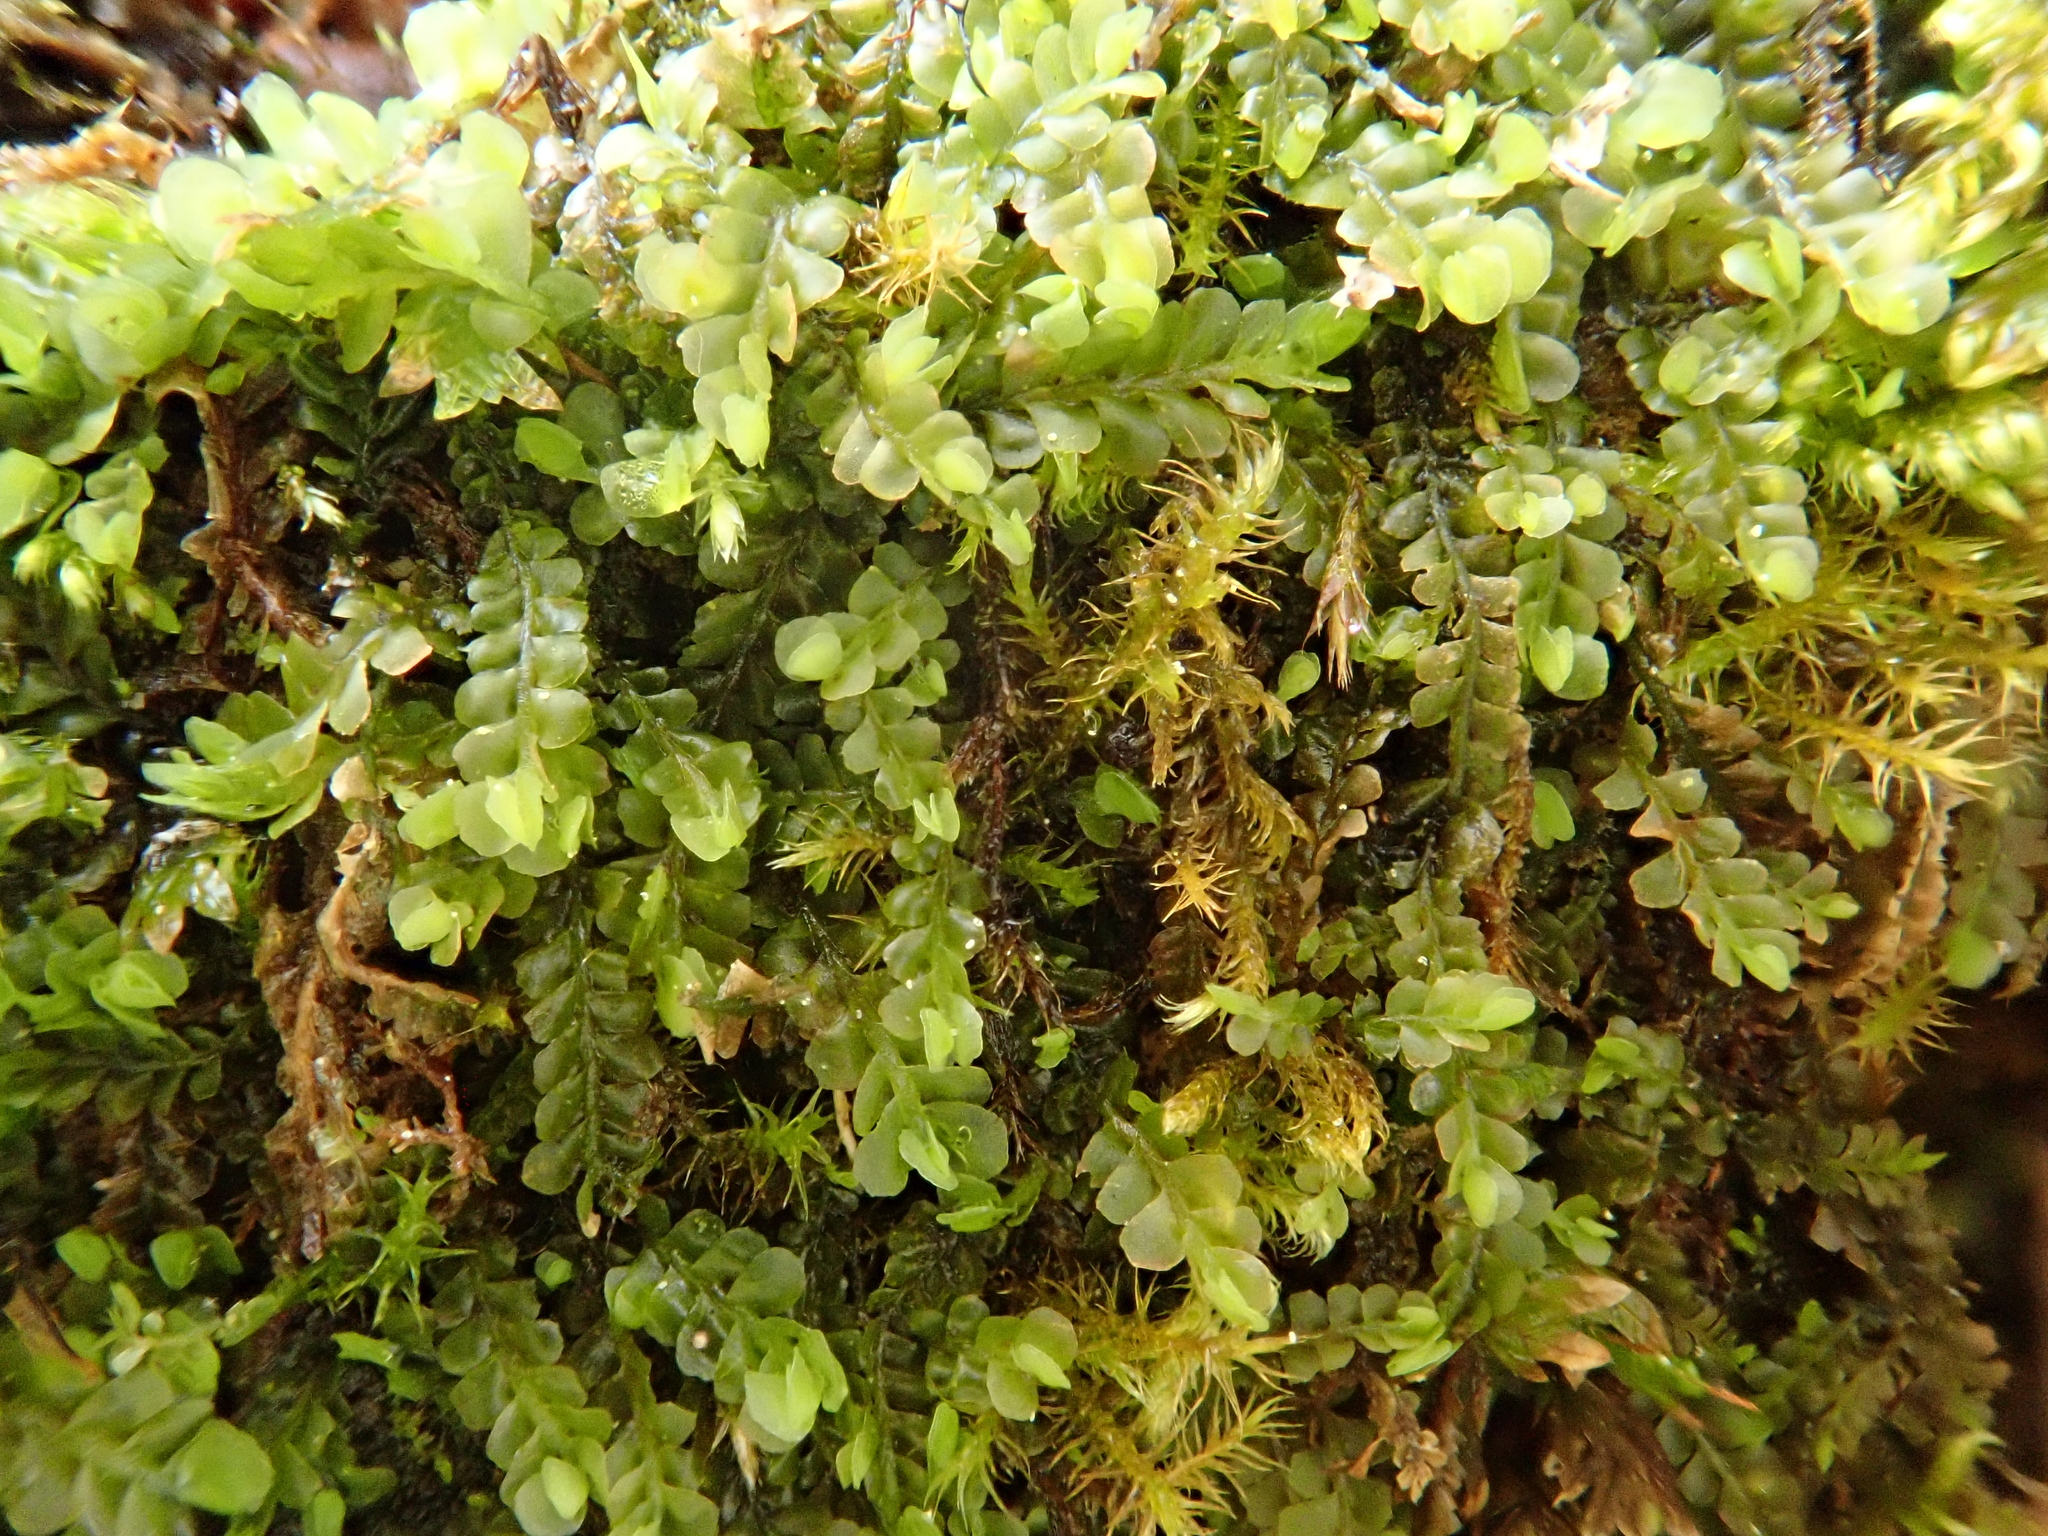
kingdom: Plantae
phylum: Marchantiophyta
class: Jungermanniopsida
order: Jungermanniales
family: Plagiochilaceae
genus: Pedinophyllum
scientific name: Pedinophyllum interruptum
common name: Craven featherwort
